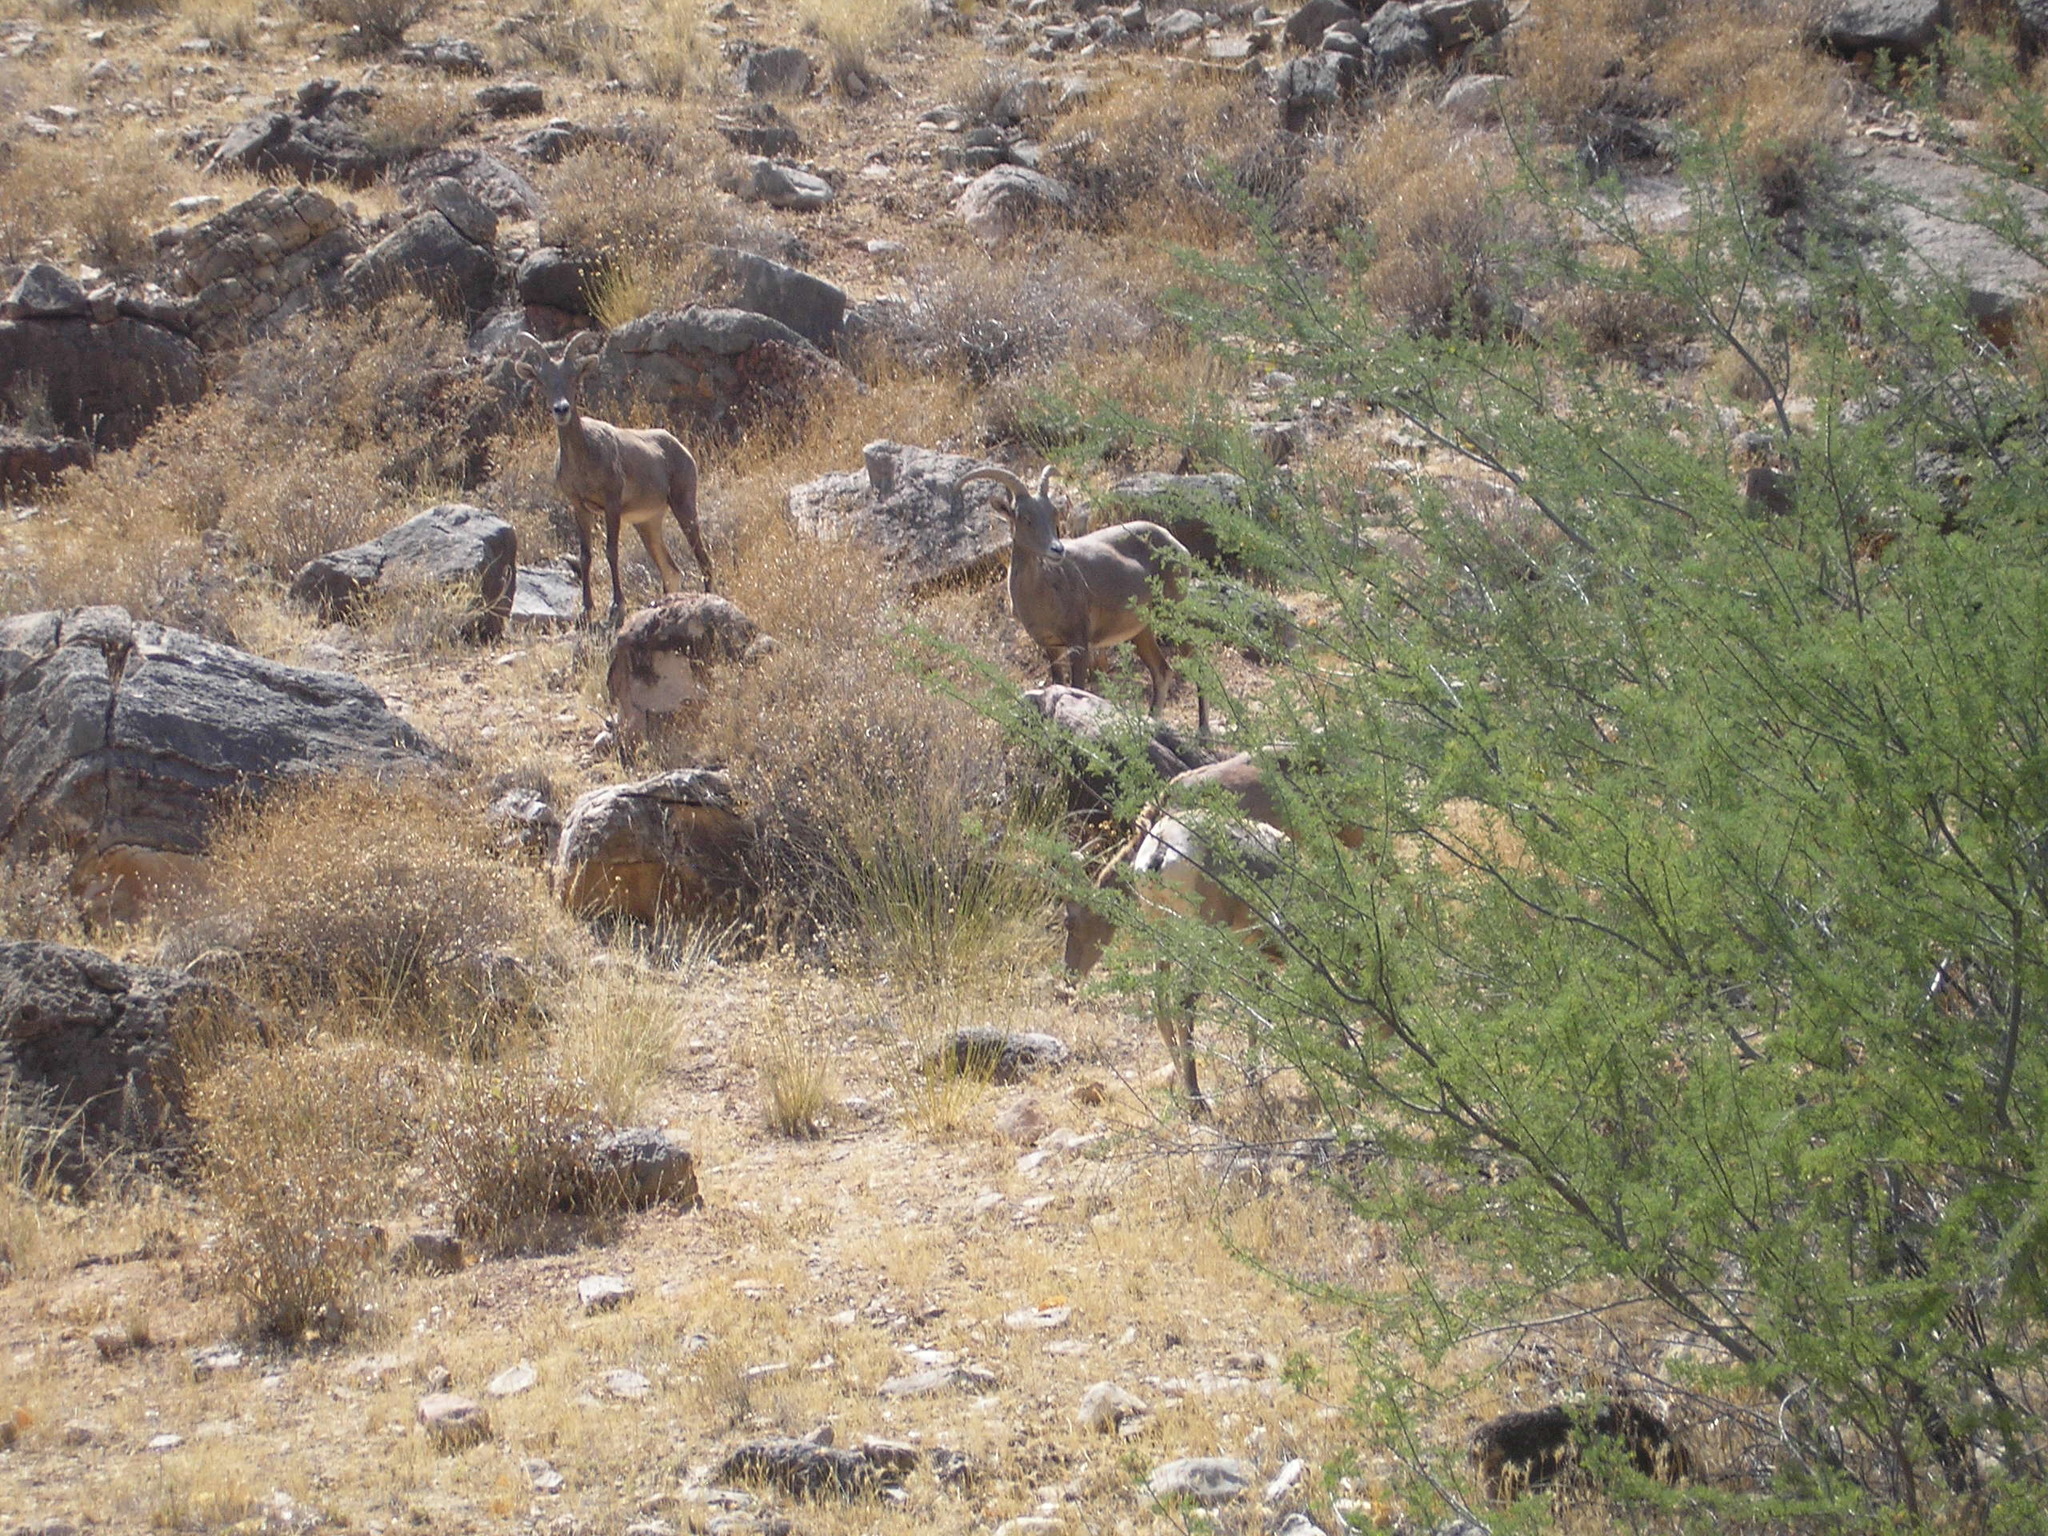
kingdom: Animalia
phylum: Chordata
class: Mammalia
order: Artiodactyla
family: Bovidae
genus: Ovis
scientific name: Ovis canadensis
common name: Bighorn sheep
